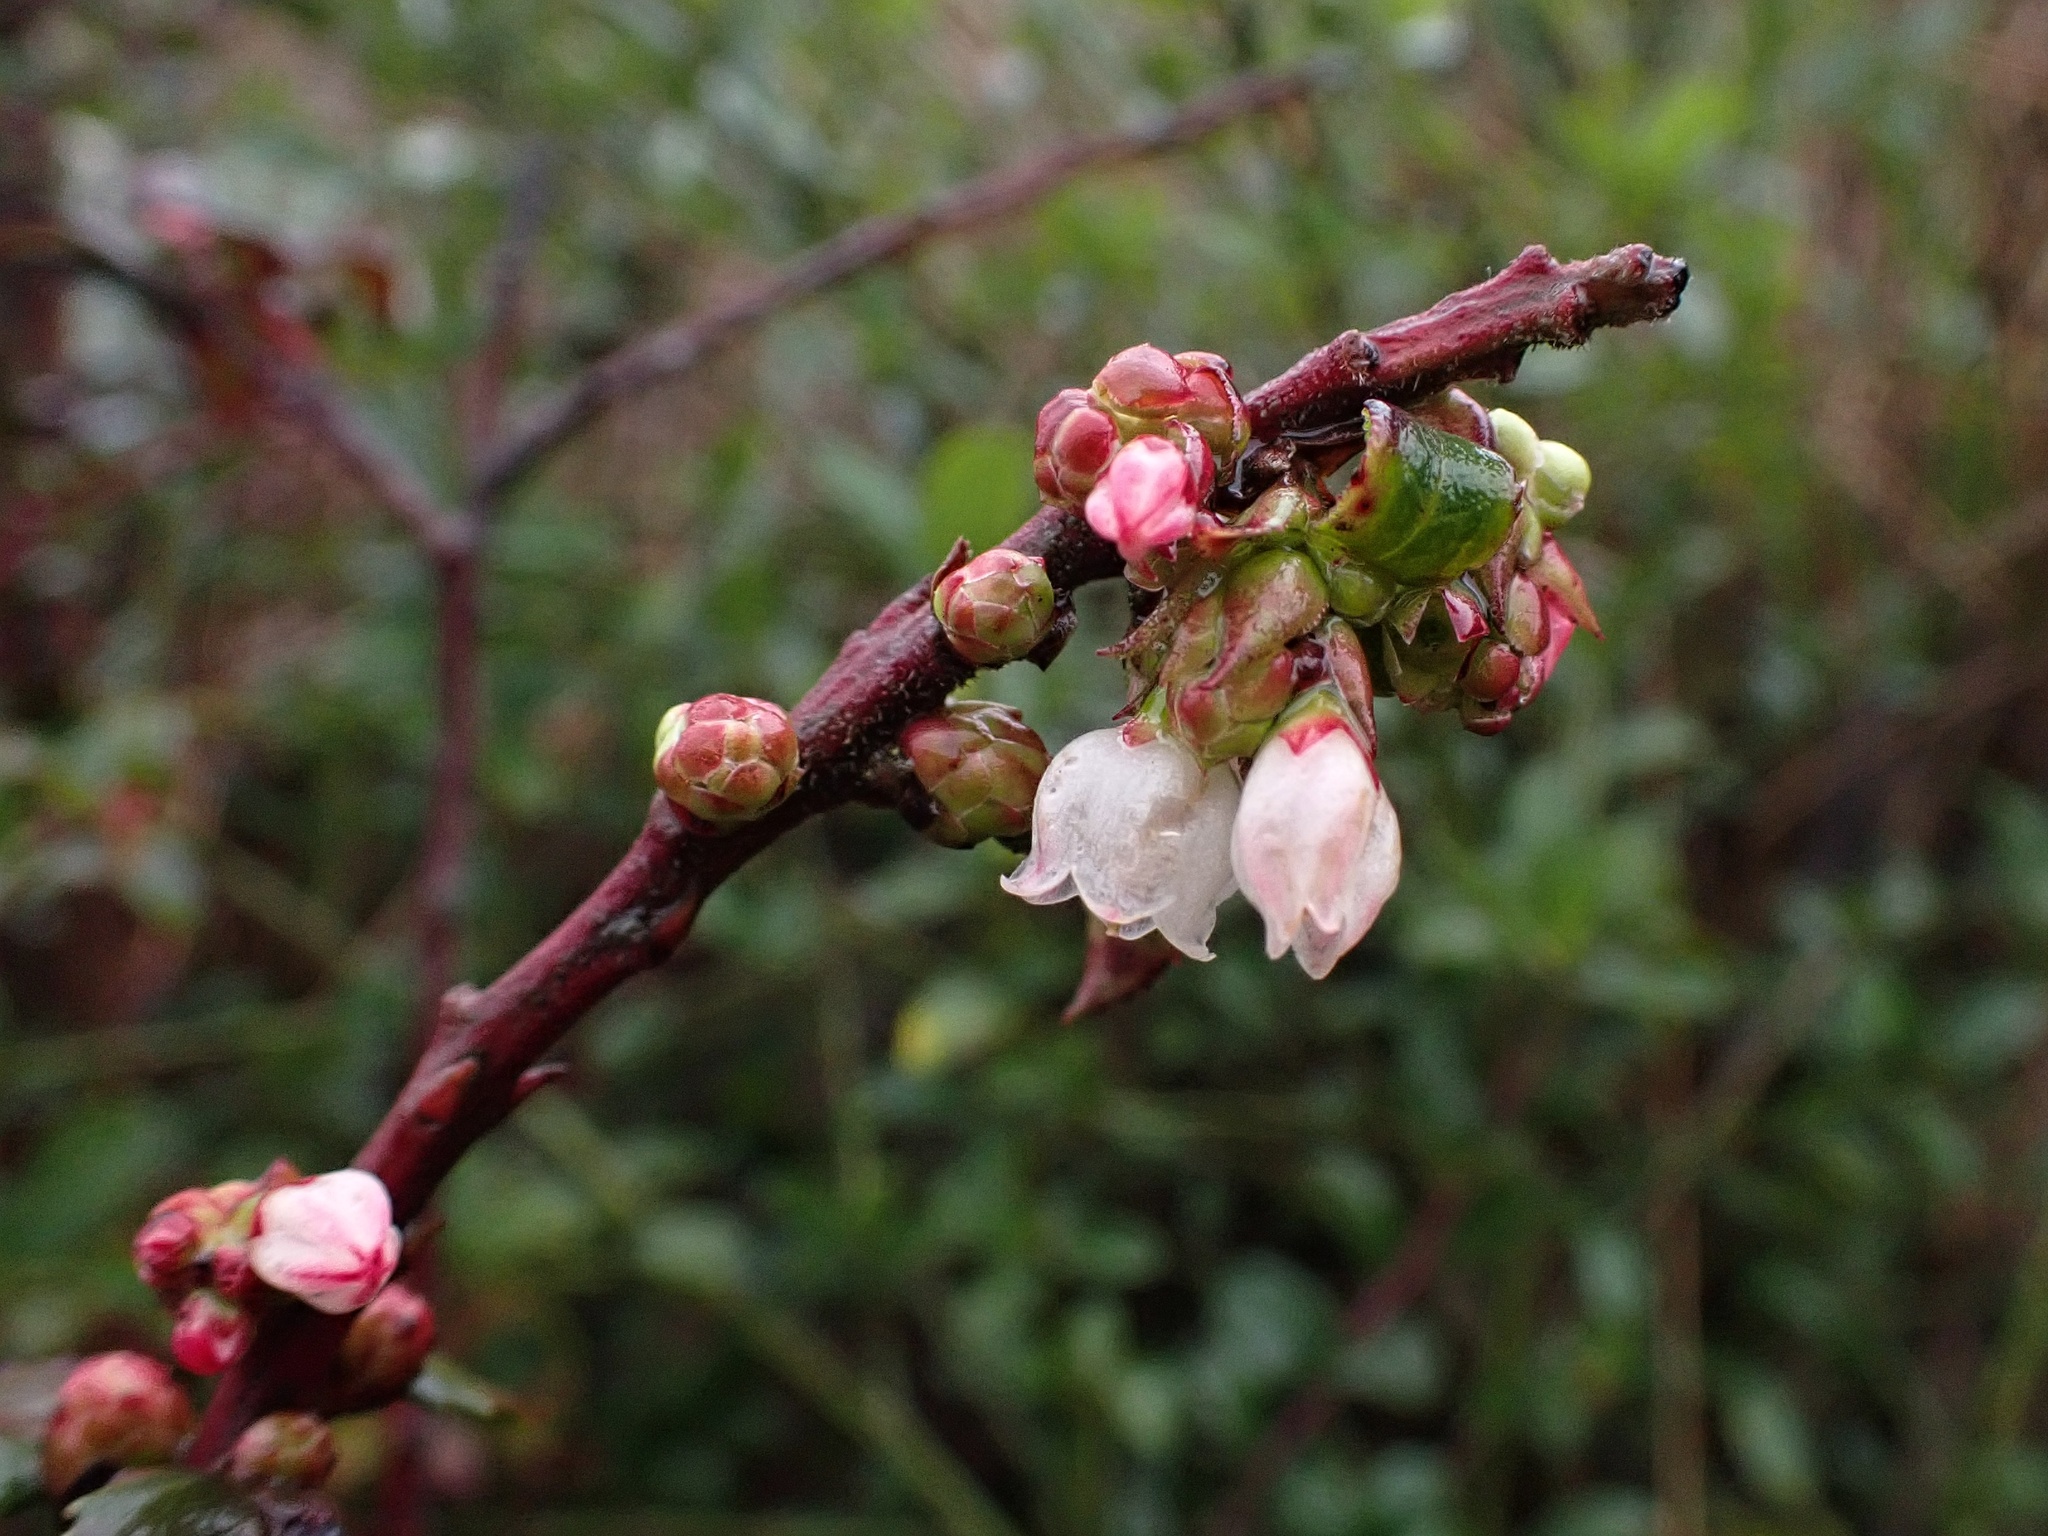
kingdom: Plantae
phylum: Tracheophyta
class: Magnoliopsida
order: Ericales
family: Ericaceae
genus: Vaccinium
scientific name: Vaccinium ovatum
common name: California-huckleberry
